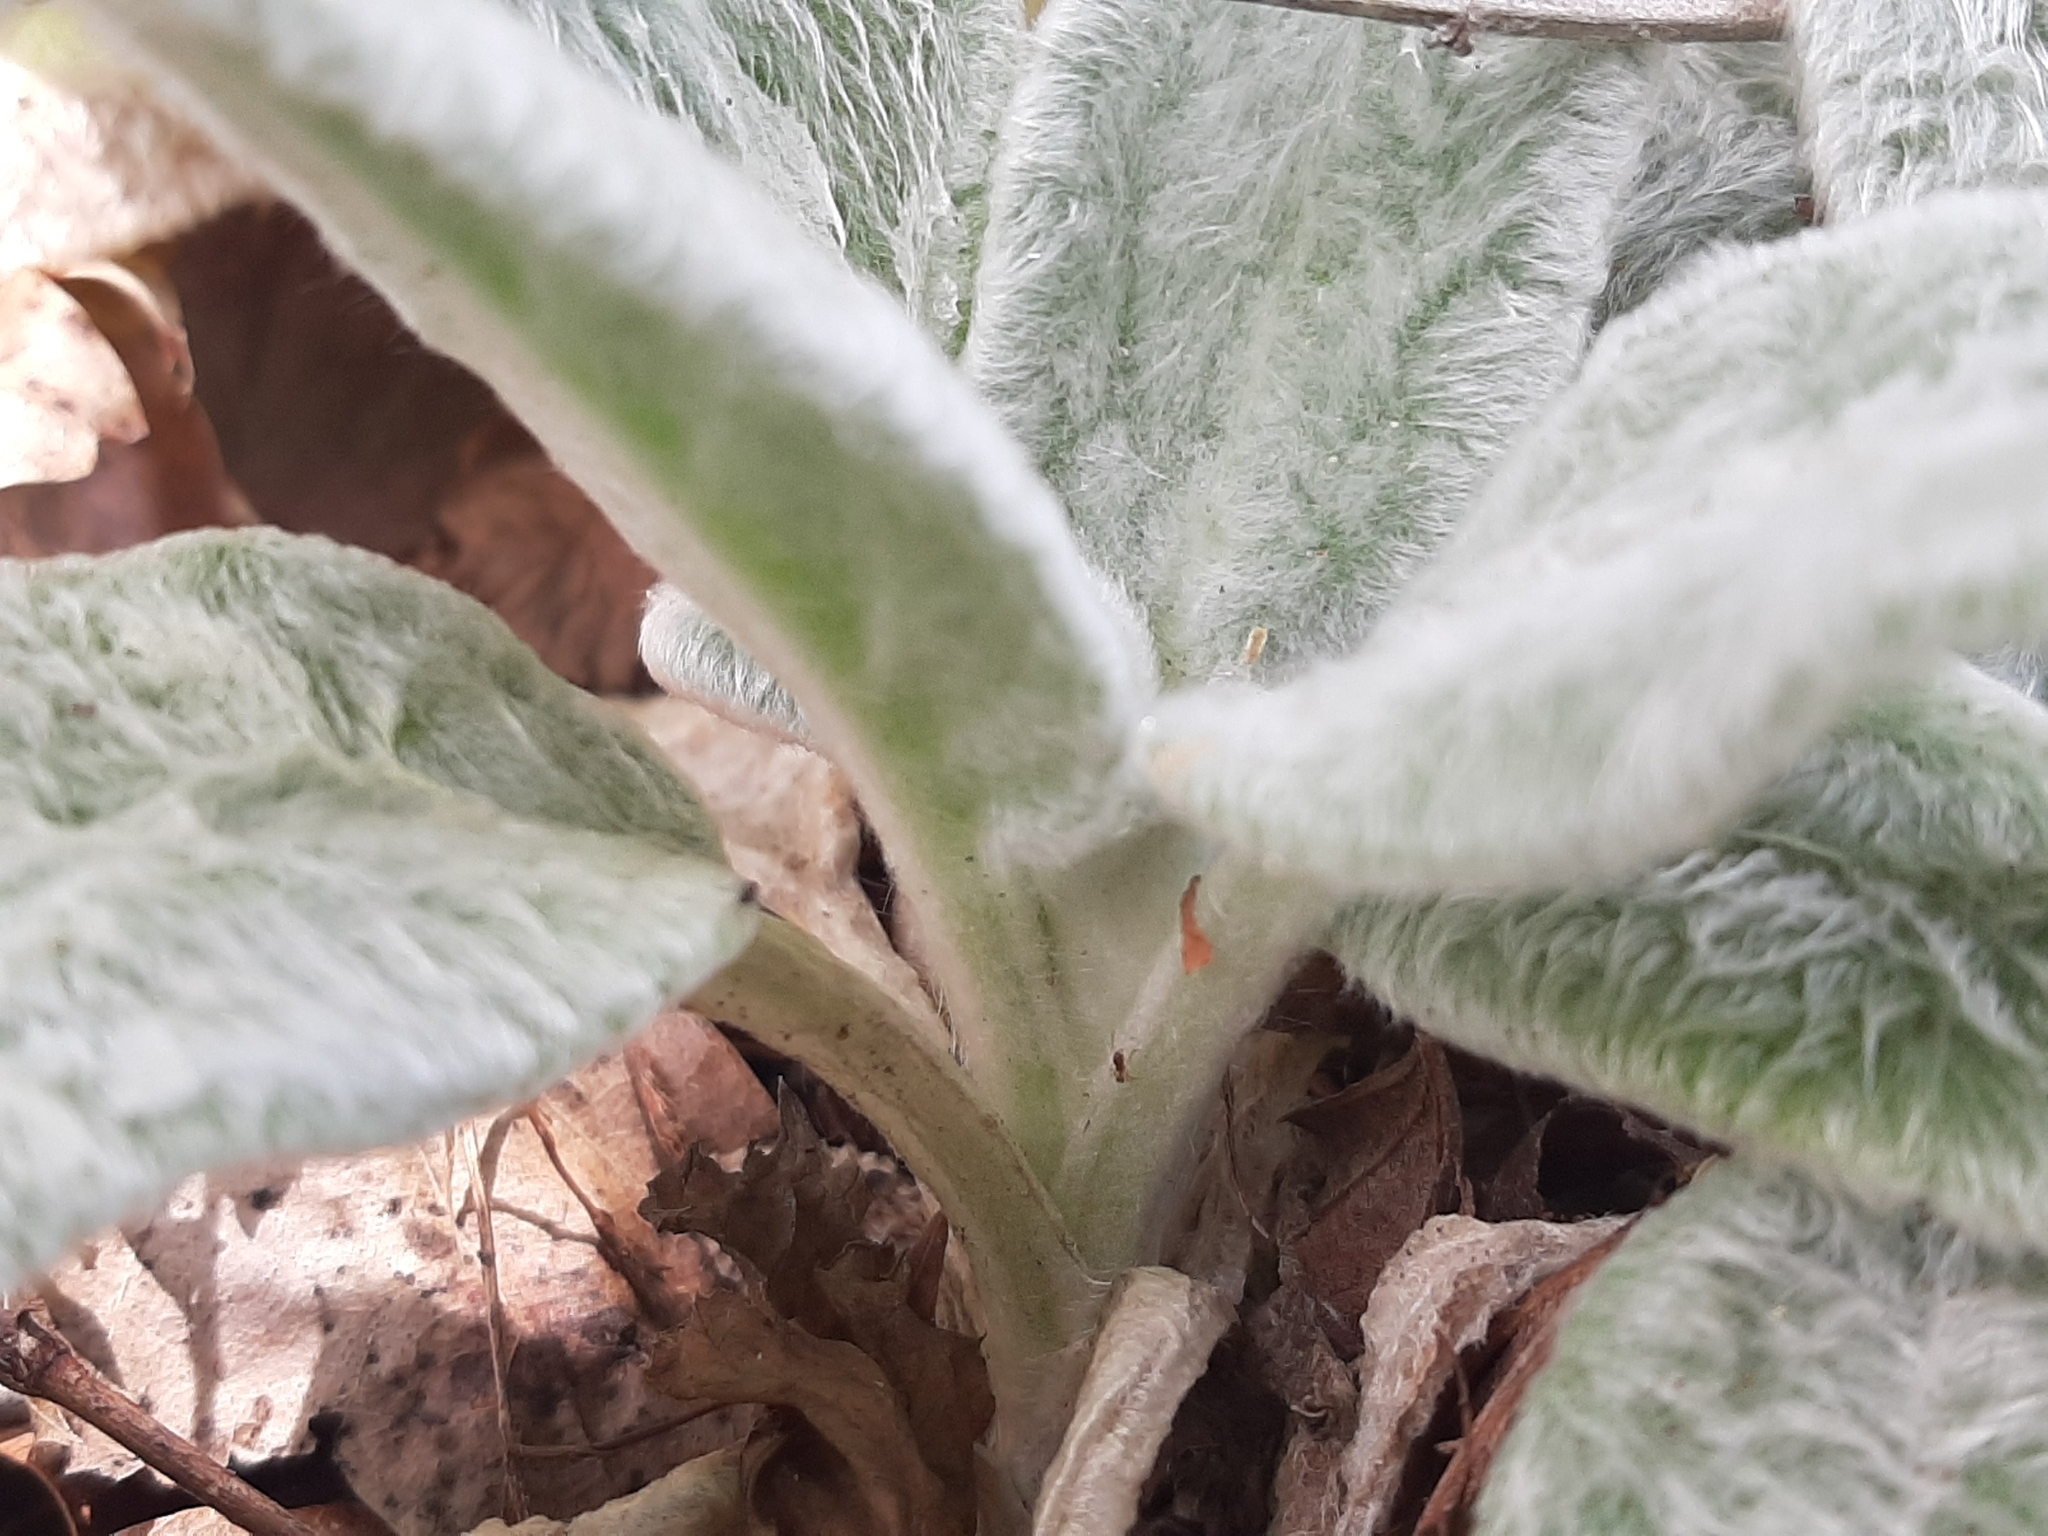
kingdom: Plantae
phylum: Tracheophyta
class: Magnoliopsida
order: Lamiales
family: Lamiaceae
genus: Stachys
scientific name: Stachys byzantina
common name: Lamb's-ear
